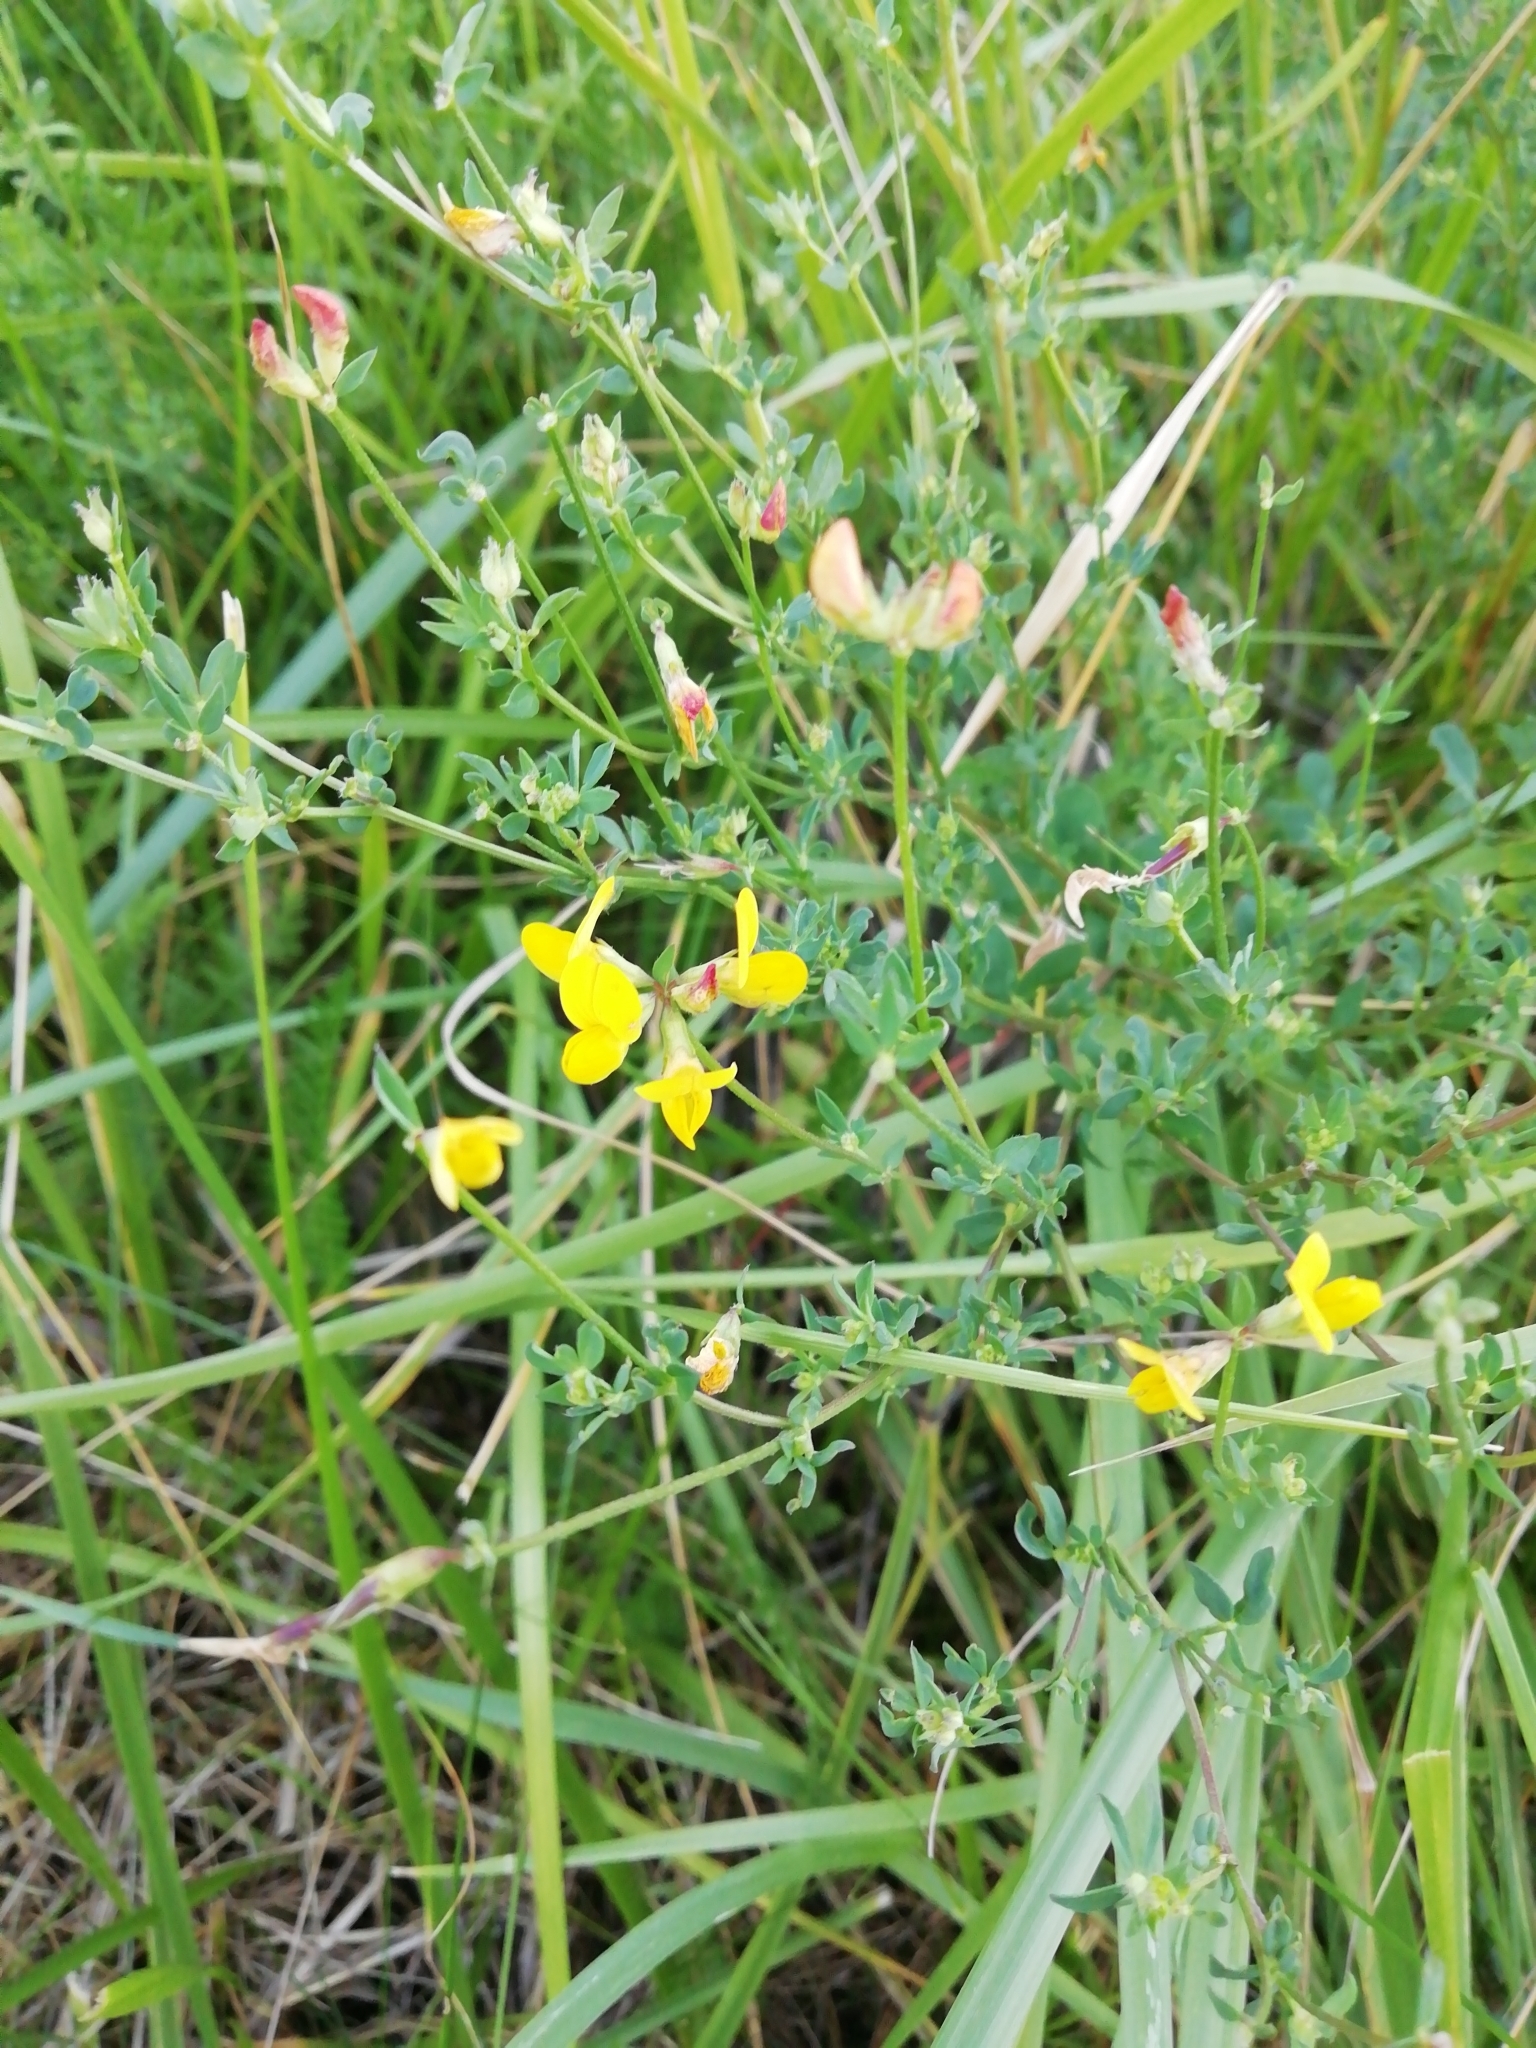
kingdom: Plantae
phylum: Tracheophyta
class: Magnoliopsida
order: Fabales
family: Fabaceae
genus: Lotus
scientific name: Lotus corniculatus
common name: Common bird's-foot-trefoil
